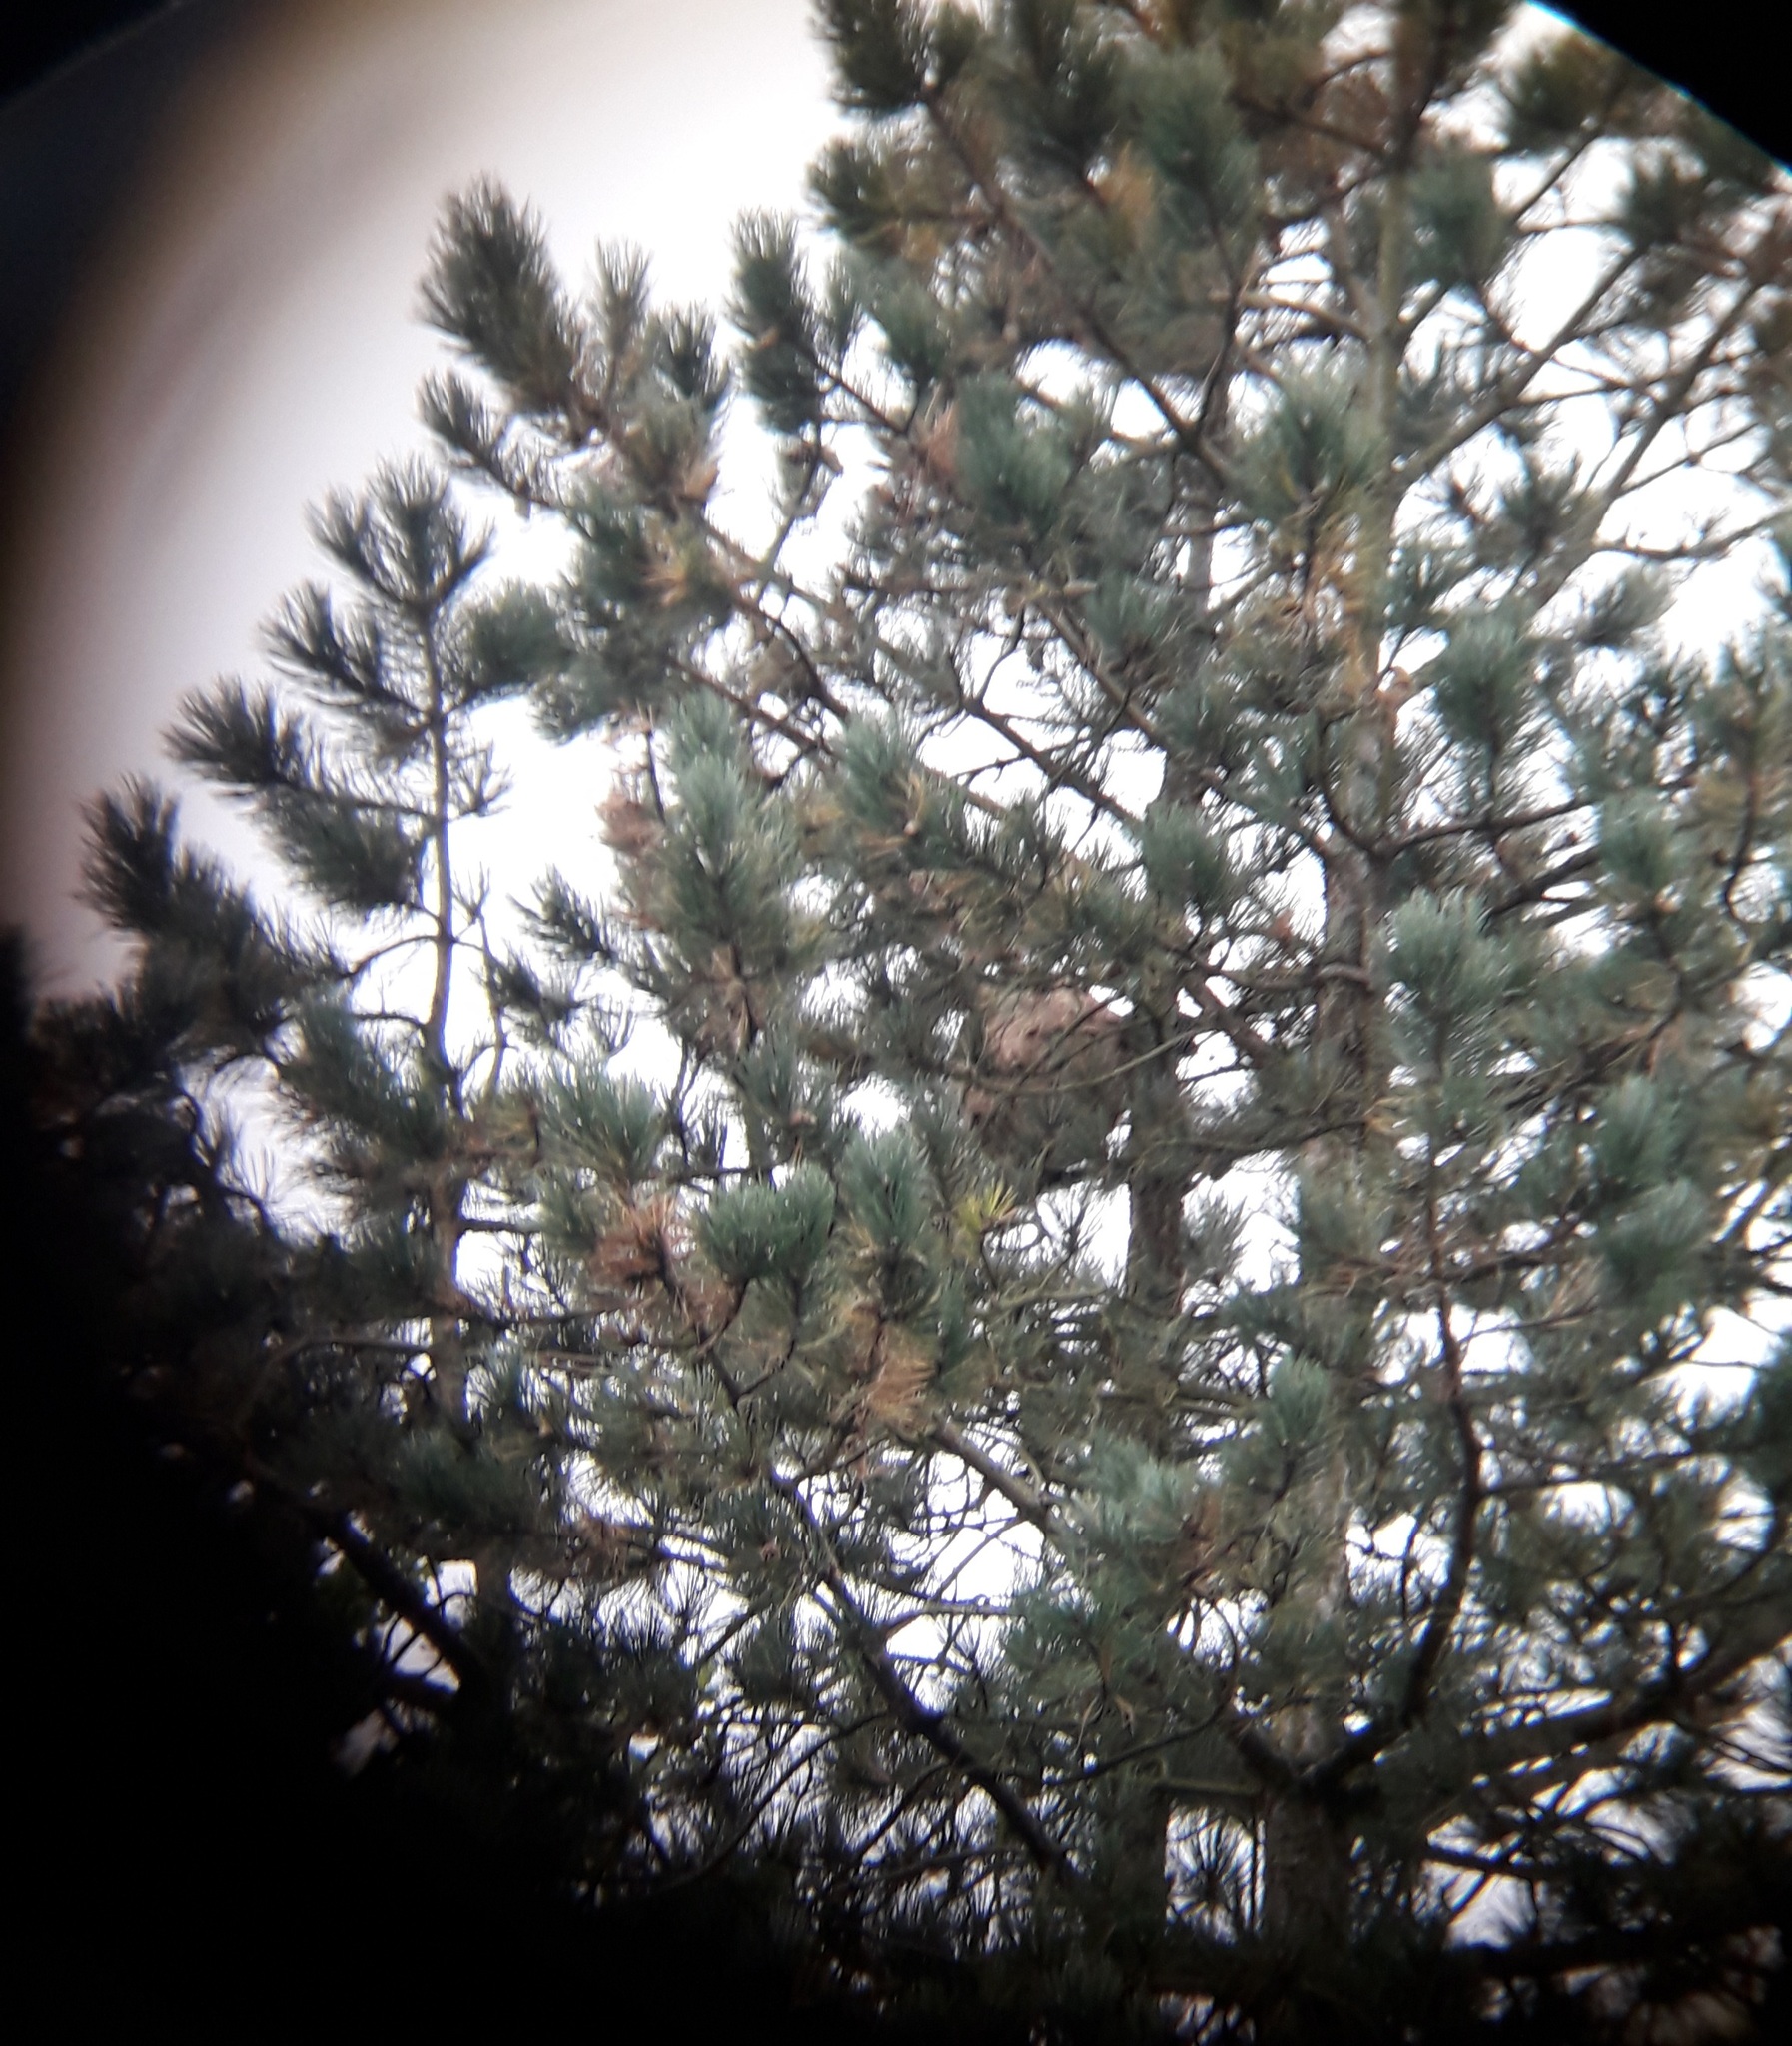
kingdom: Animalia
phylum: Arthropoda
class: Insecta
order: Hymenoptera
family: Vespidae
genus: Vespa
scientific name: Vespa velutina
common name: Asian hornet
